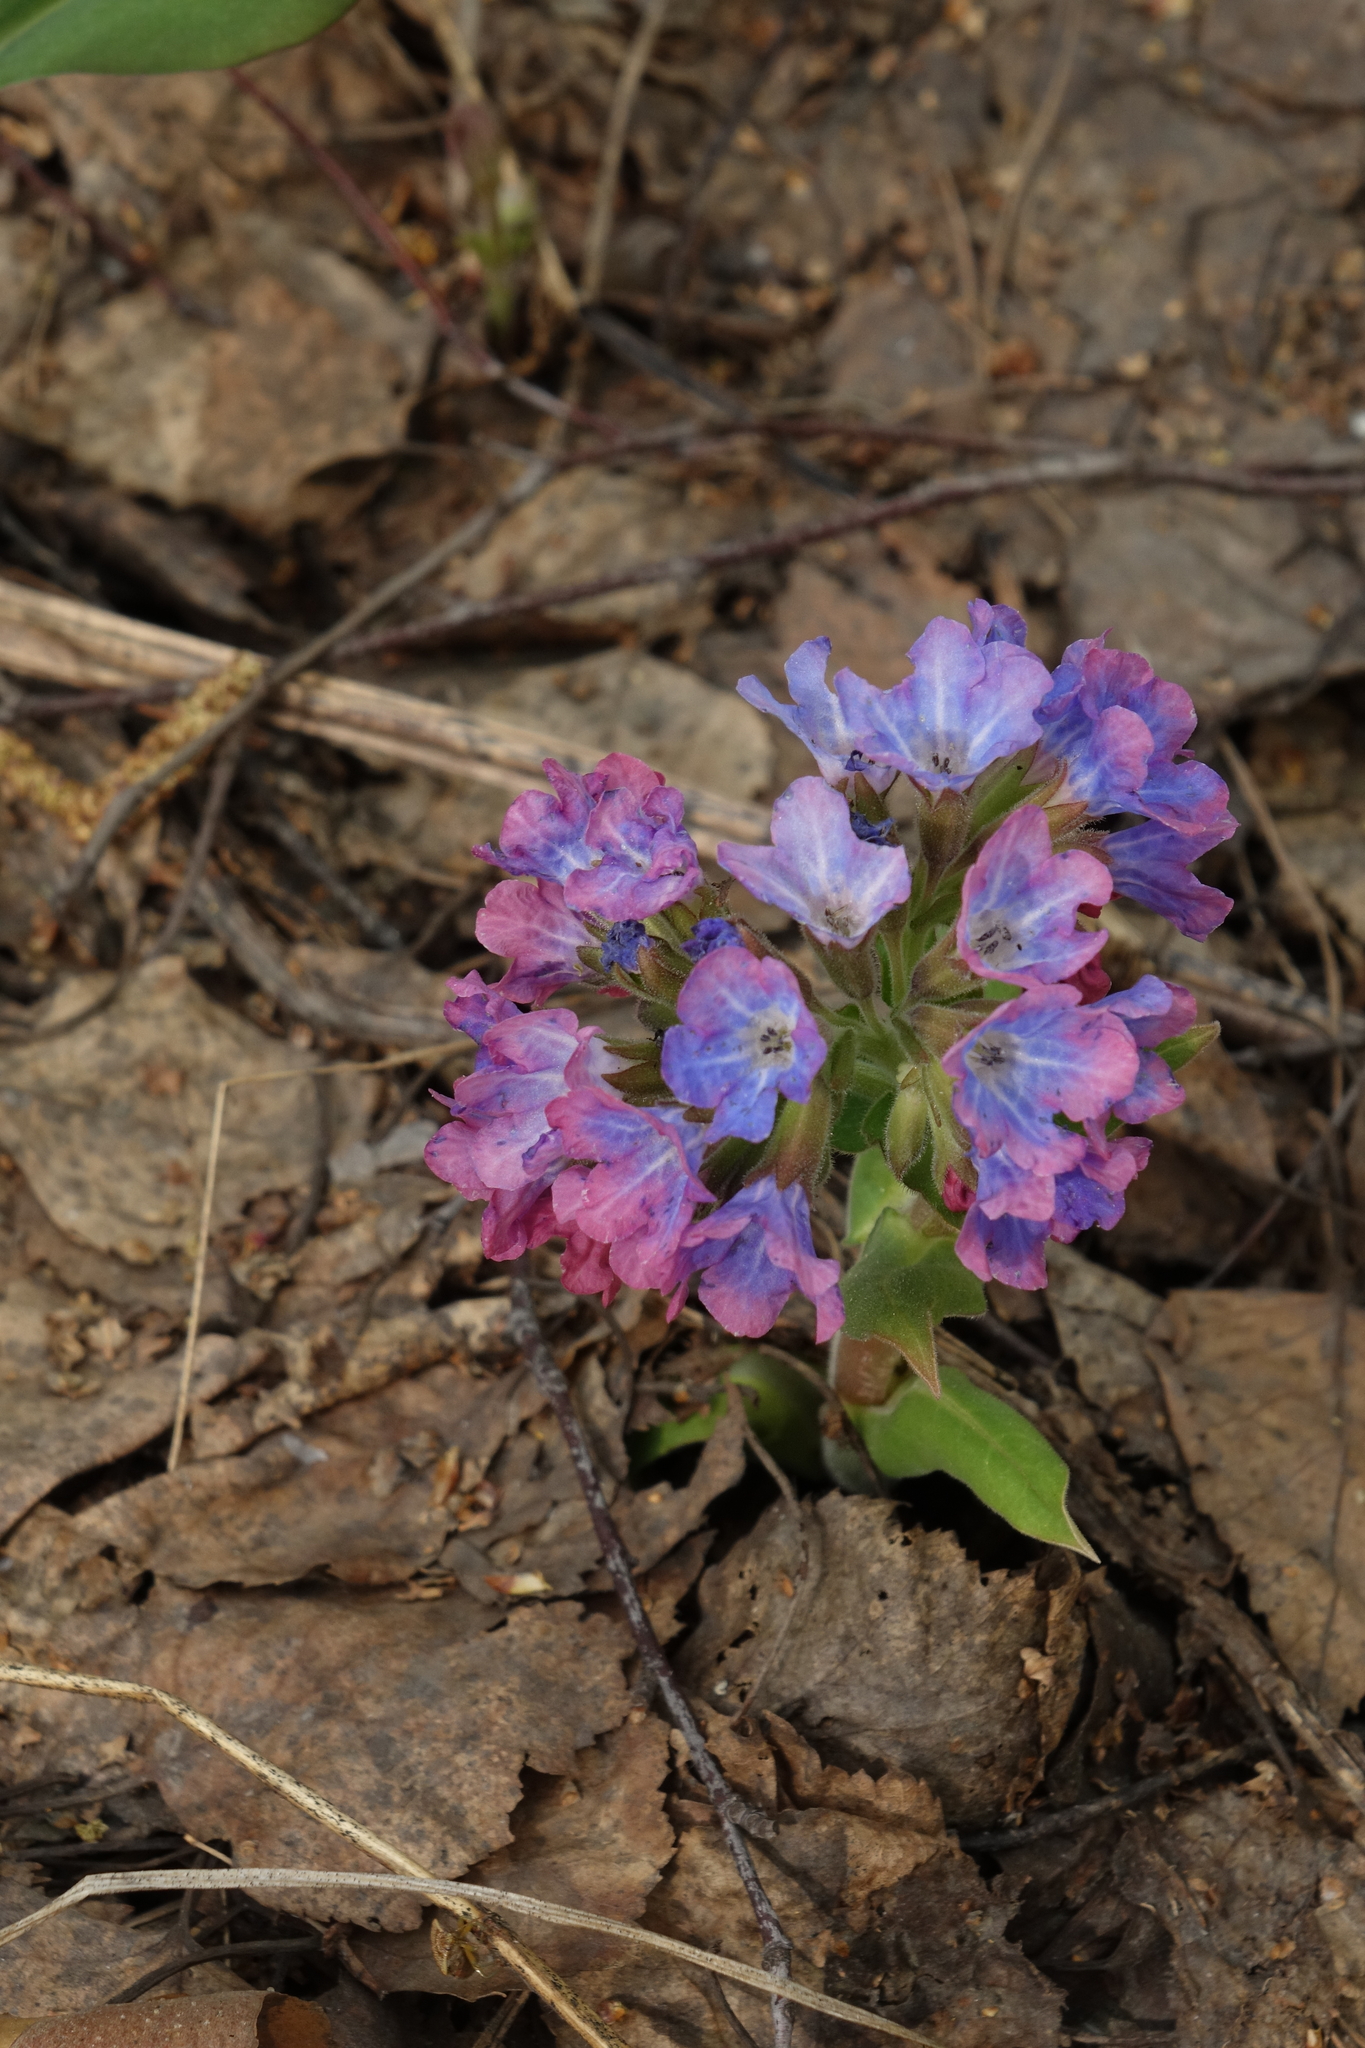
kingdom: Plantae
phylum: Tracheophyta
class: Magnoliopsida
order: Boraginales
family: Boraginaceae
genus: Pulmonaria
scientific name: Pulmonaria mollis
